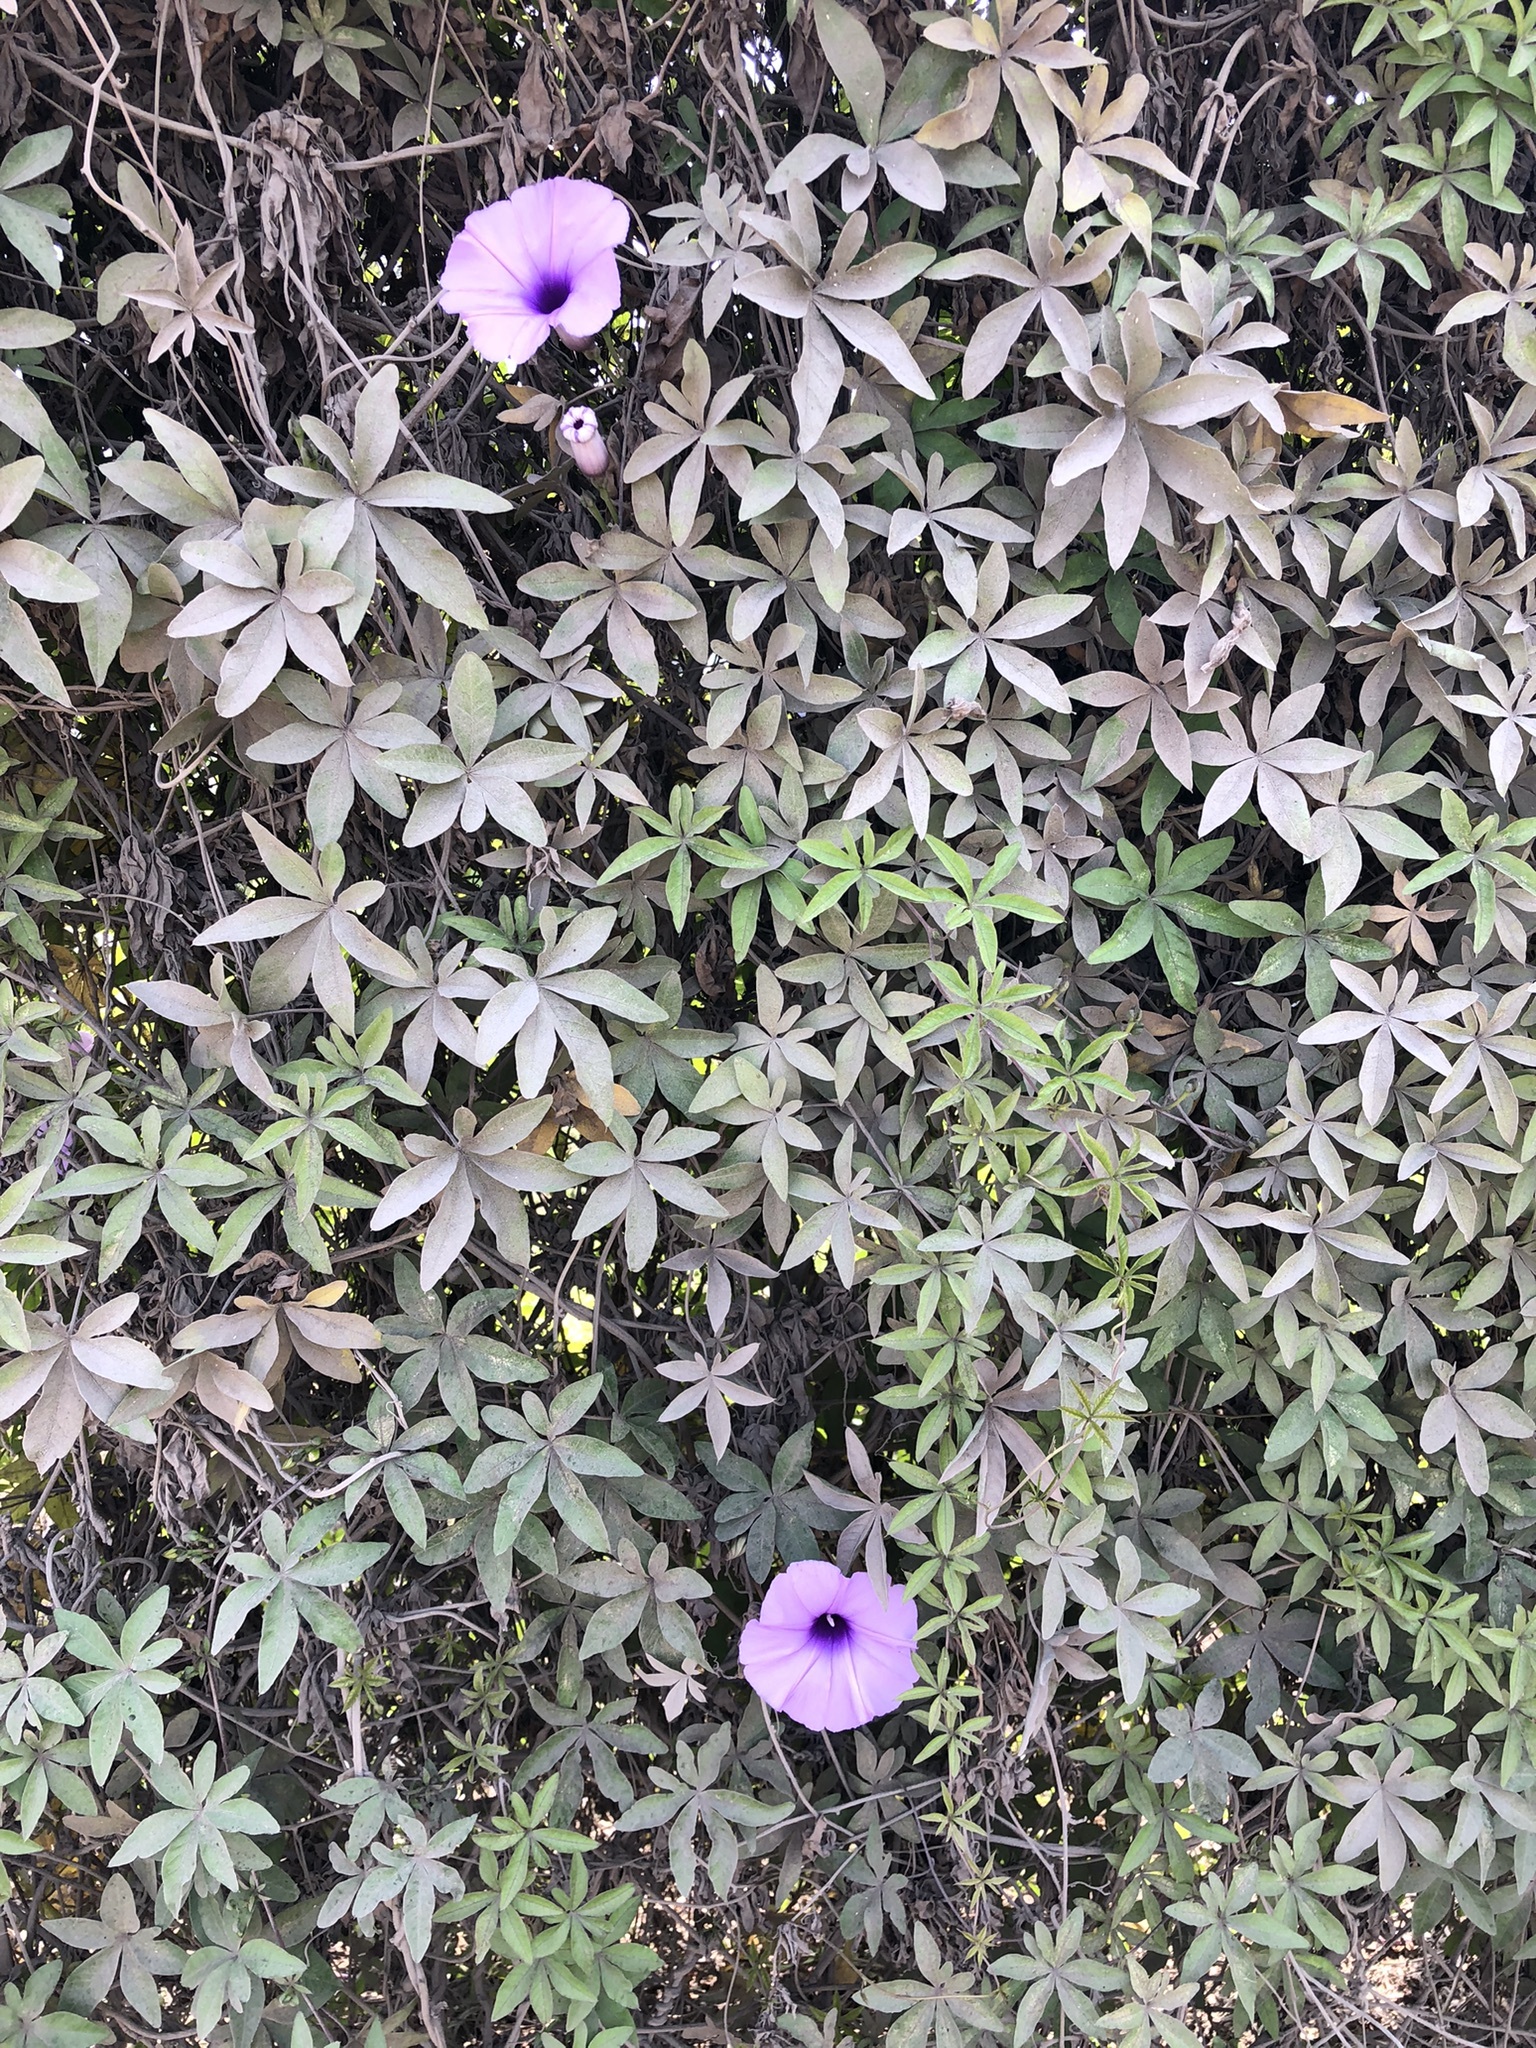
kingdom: Plantae
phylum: Tracheophyta
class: Magnoliopsida
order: Solanales
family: Convolvulaceae
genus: Ipomoea
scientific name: Ipomoea cairica
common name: Mile a minute vine
